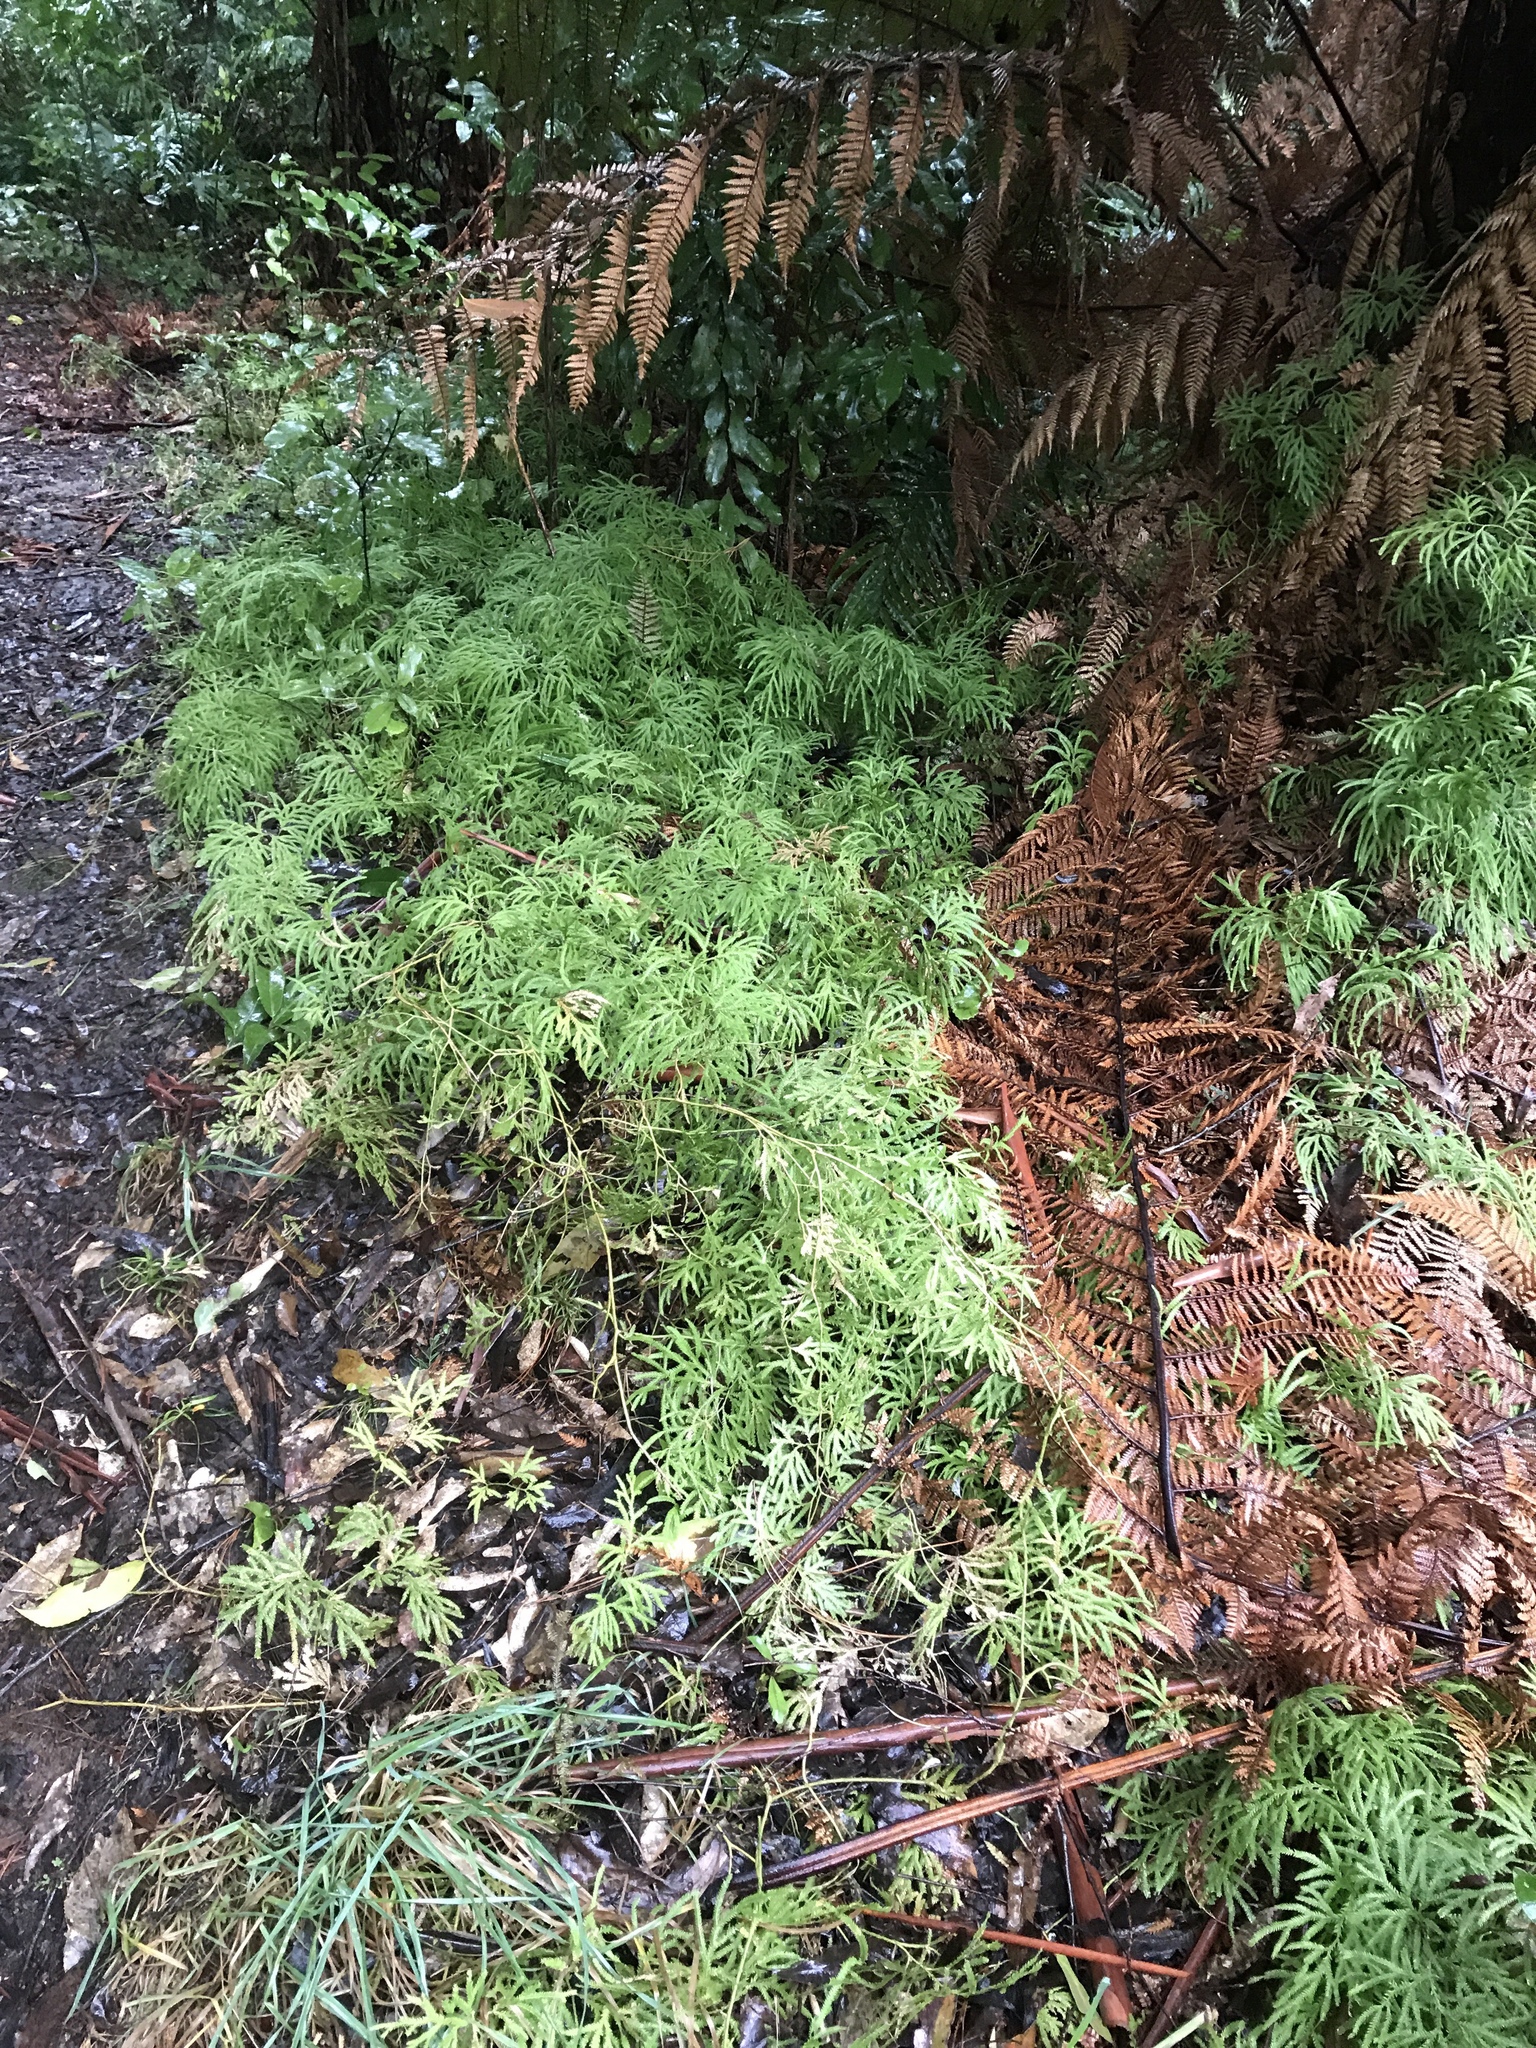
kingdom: Plantae
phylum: Tracheophyta
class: Lycopodiopsida
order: Lycopodiales
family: Lycopodiaceae
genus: Lycopodium
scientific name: Lycopodium volubile
